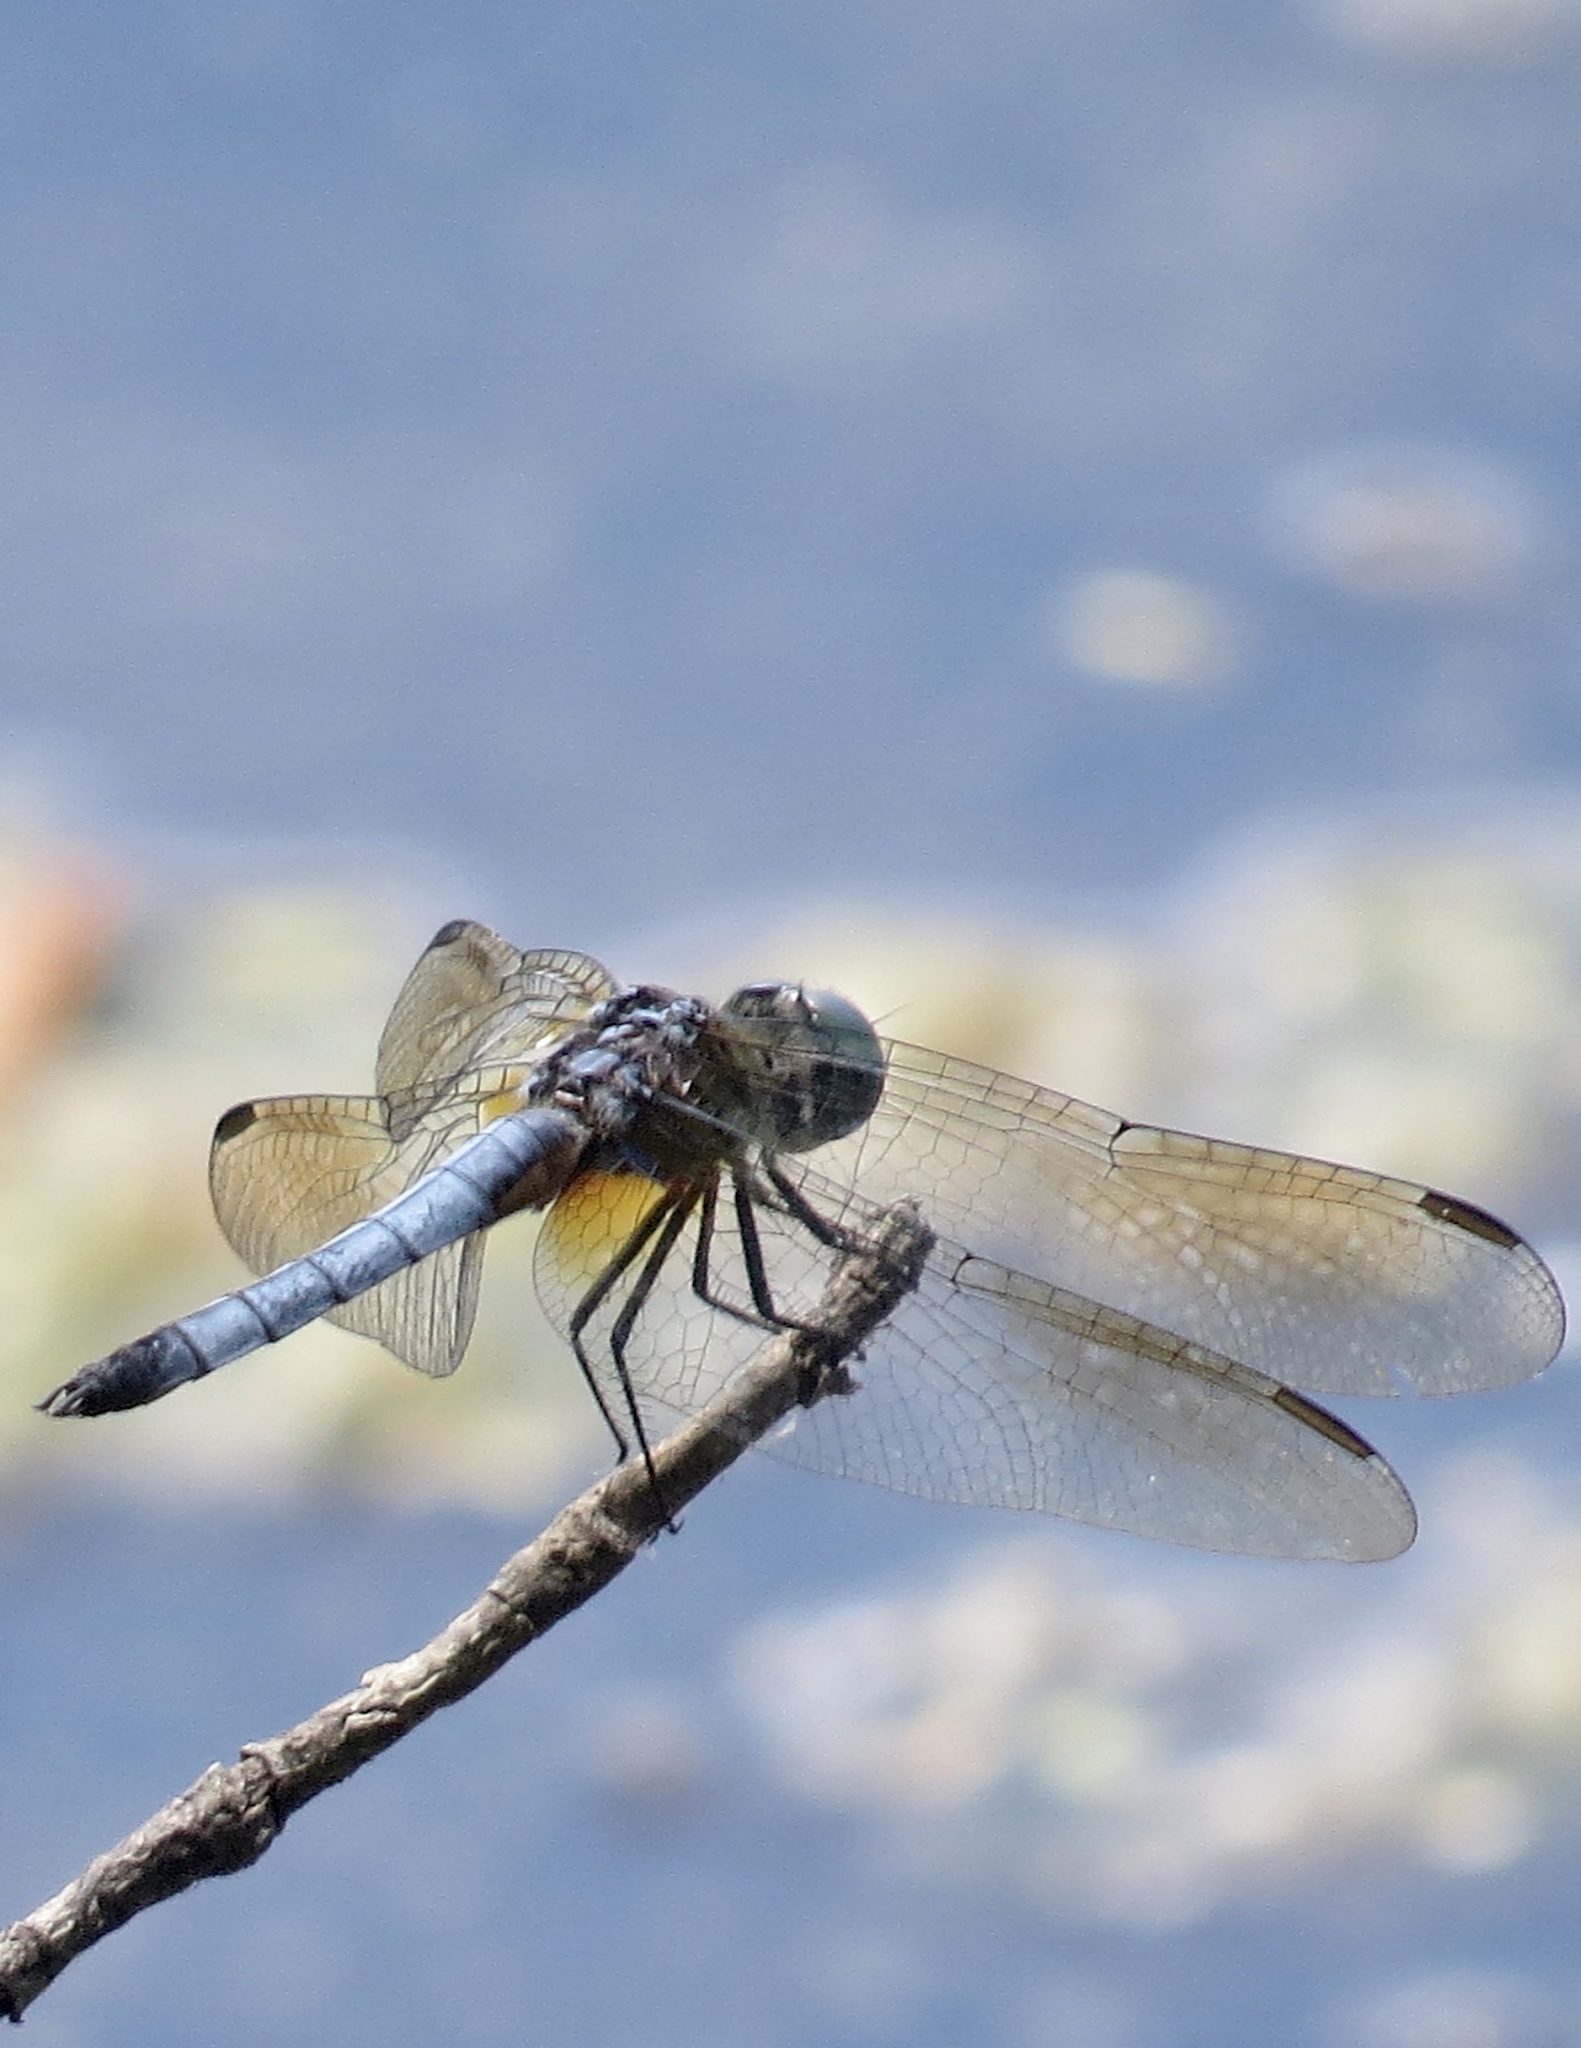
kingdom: Animalia
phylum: Arthropoda
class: Insecta
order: Odonata
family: Libellulidae
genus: Pachydiplax
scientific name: Pachydiplax longipennis
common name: Blue dasher
